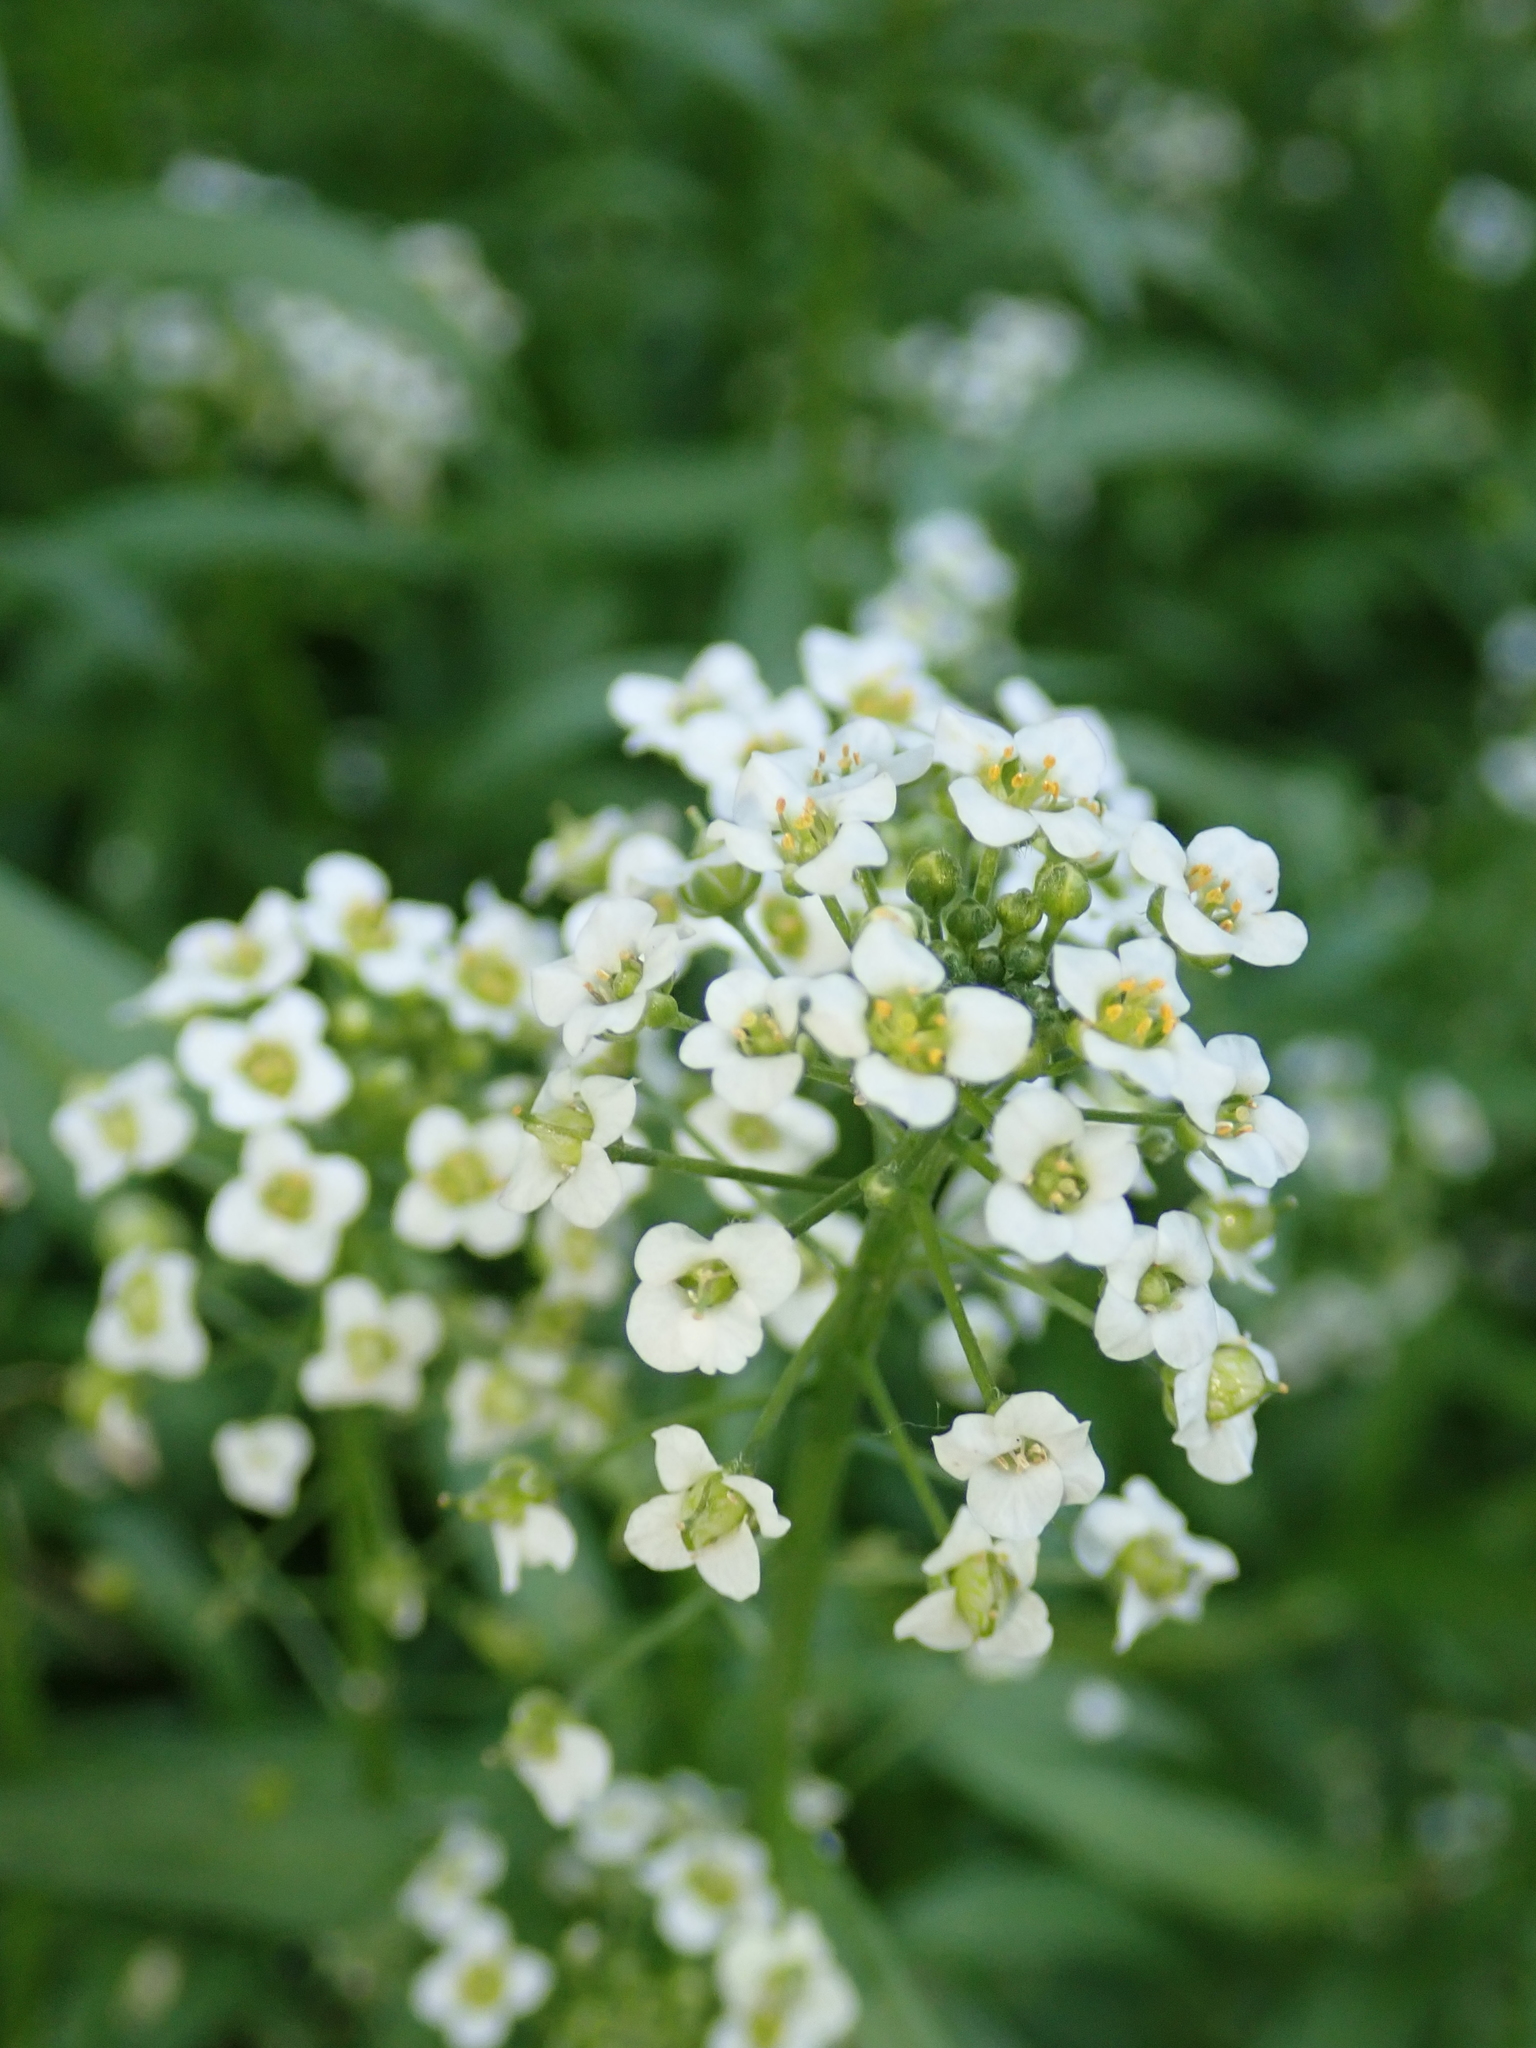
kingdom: Plantae
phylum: Tracheophyta
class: Magnoliopsida
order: Brassicales
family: Brassicaceae
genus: Lobularia
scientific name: Lobularia maritima
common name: Sweet alison
